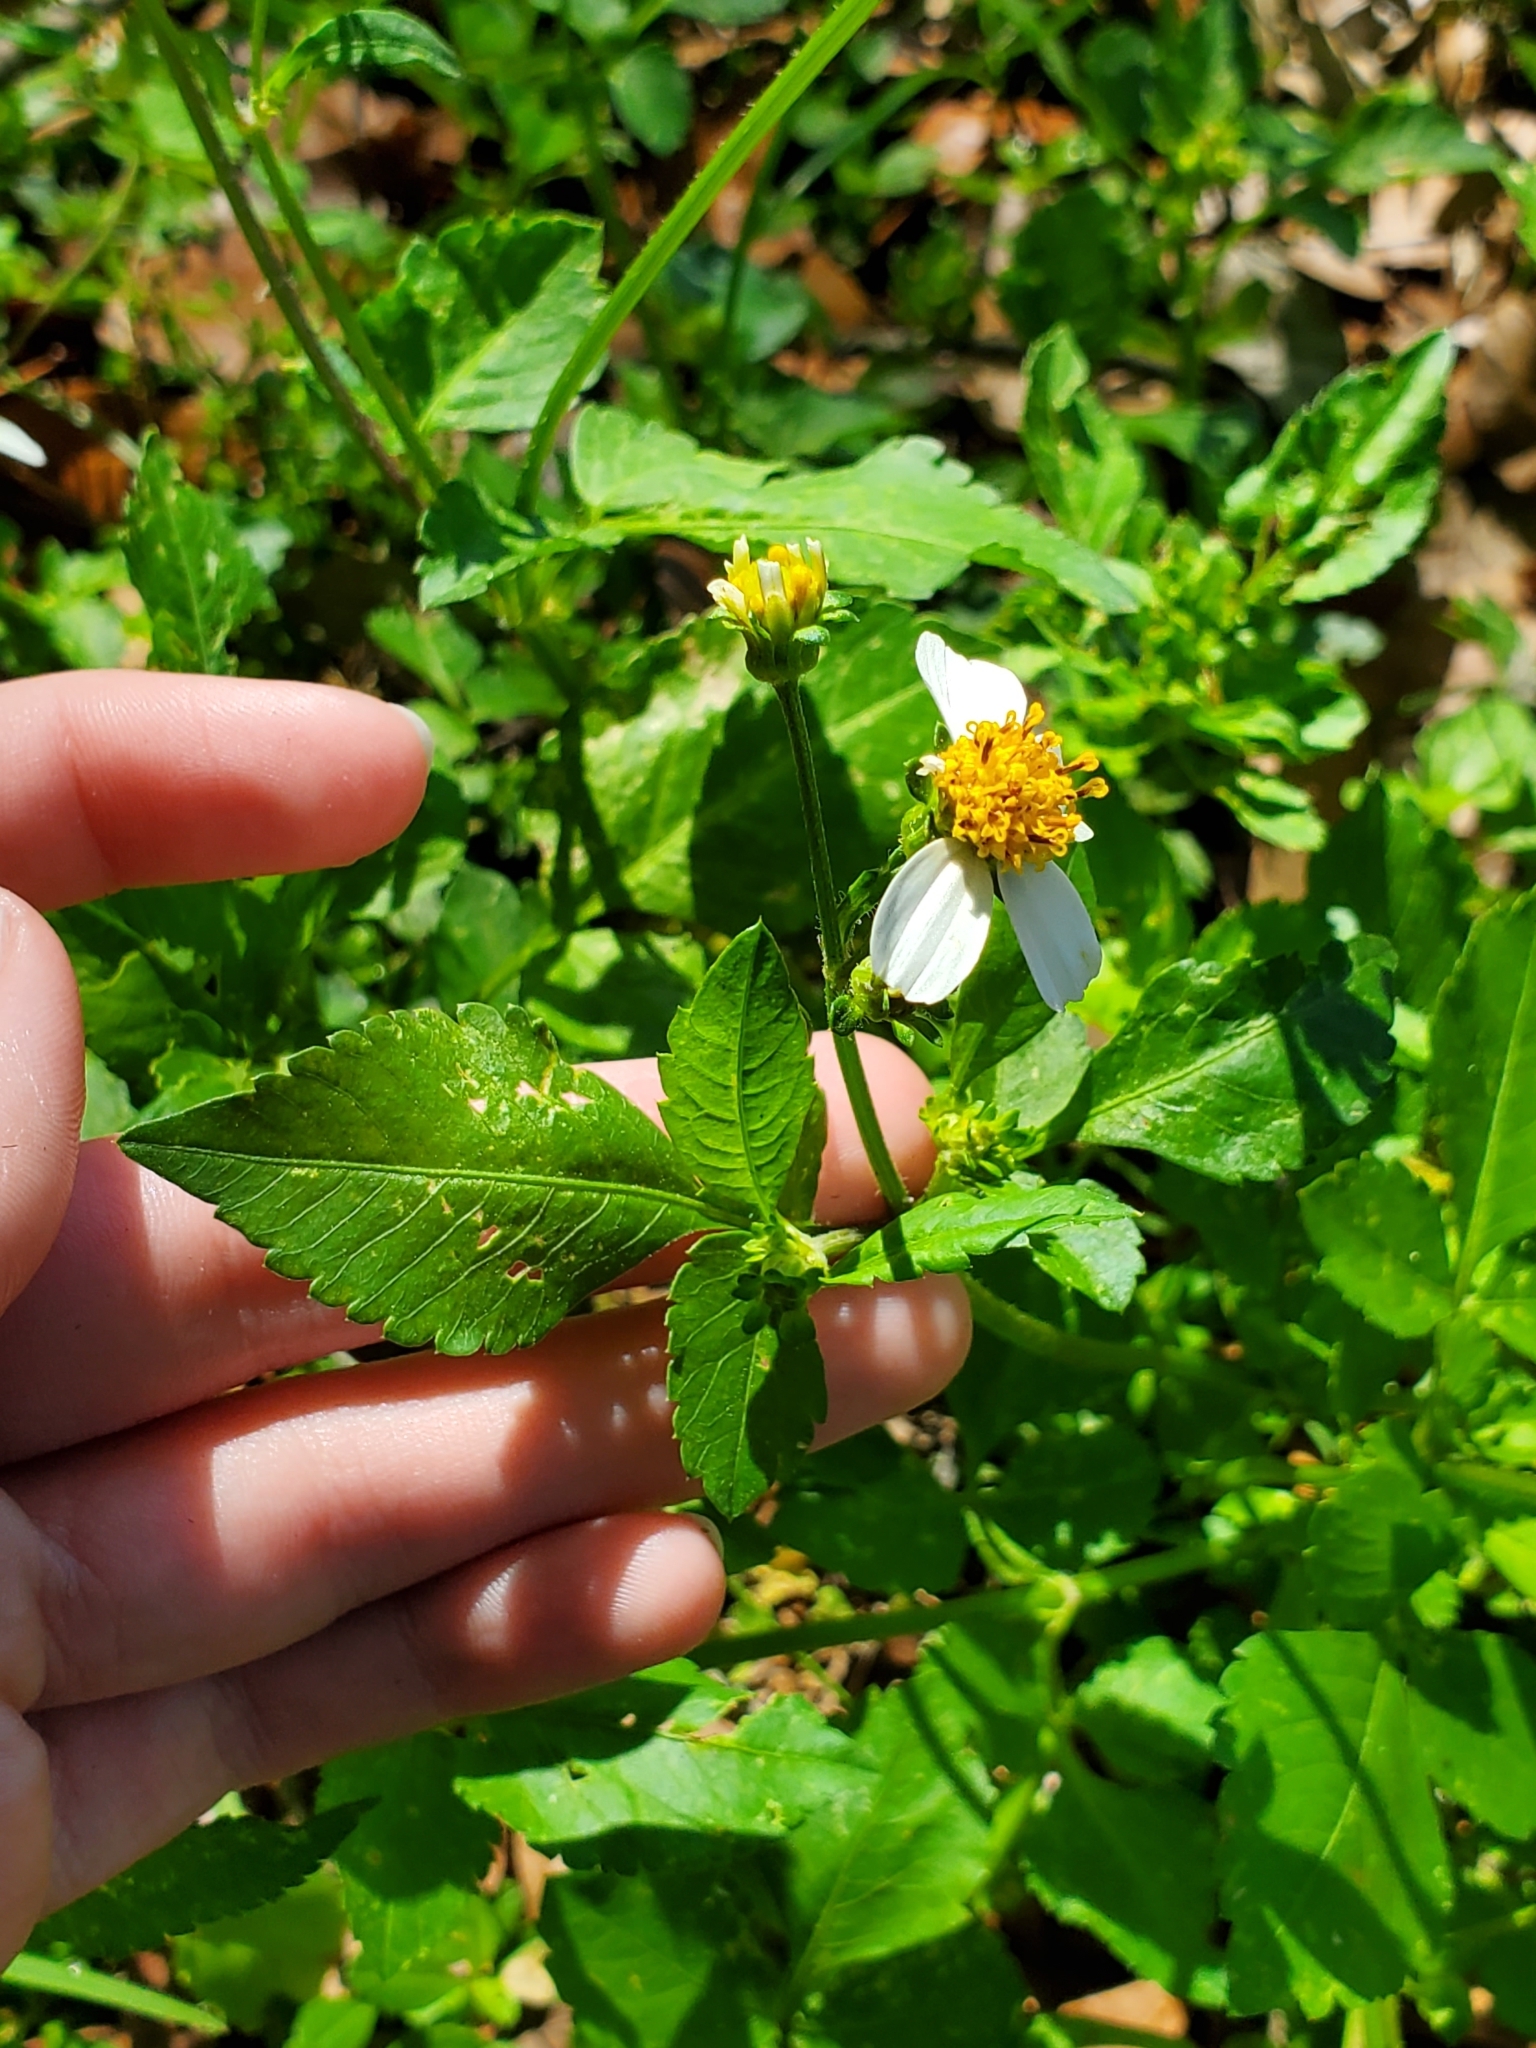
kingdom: Plantae
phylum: Tracheophyta
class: Magnoliopsida
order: Asterales
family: Asteraceae
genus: Bidens
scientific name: Bidens alba
